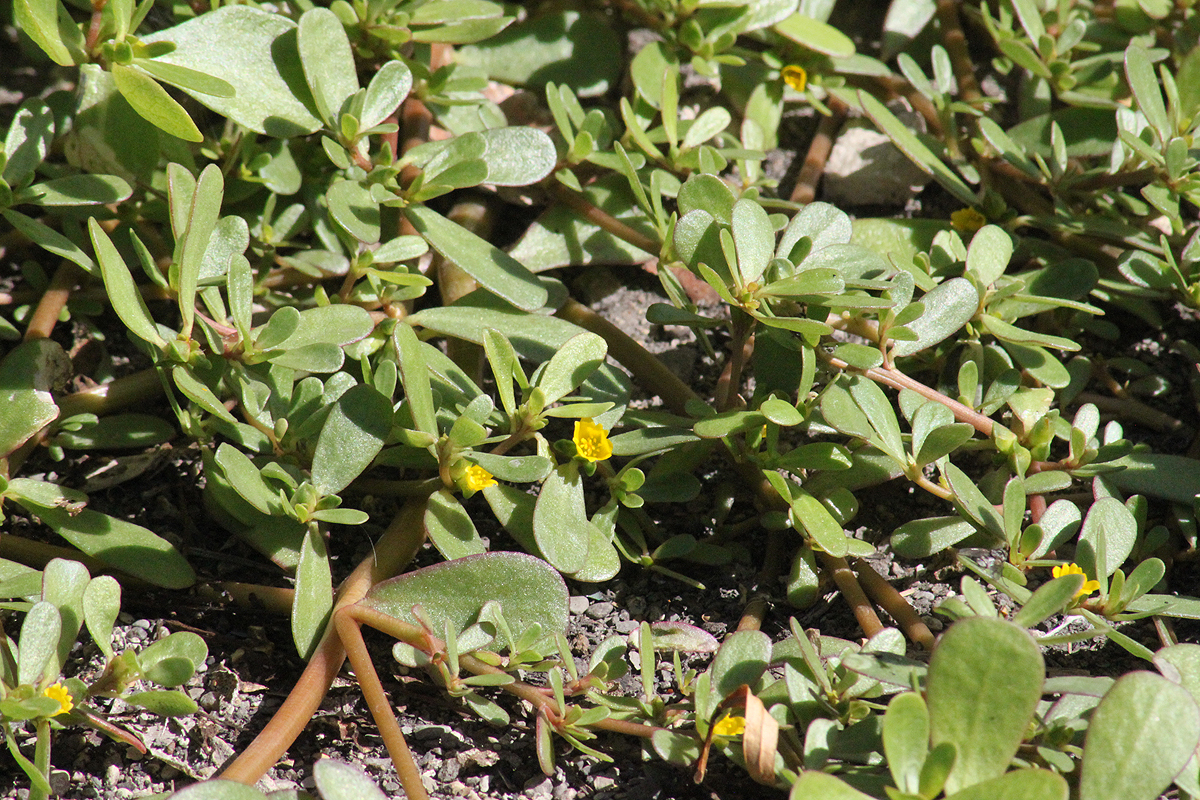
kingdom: Plantae
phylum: Tracheophyta
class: Magnoliopsida
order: Caryophyllales
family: Portulacaceae
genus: Portulaca
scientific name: Portulaca oleracea
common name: Common purslane
